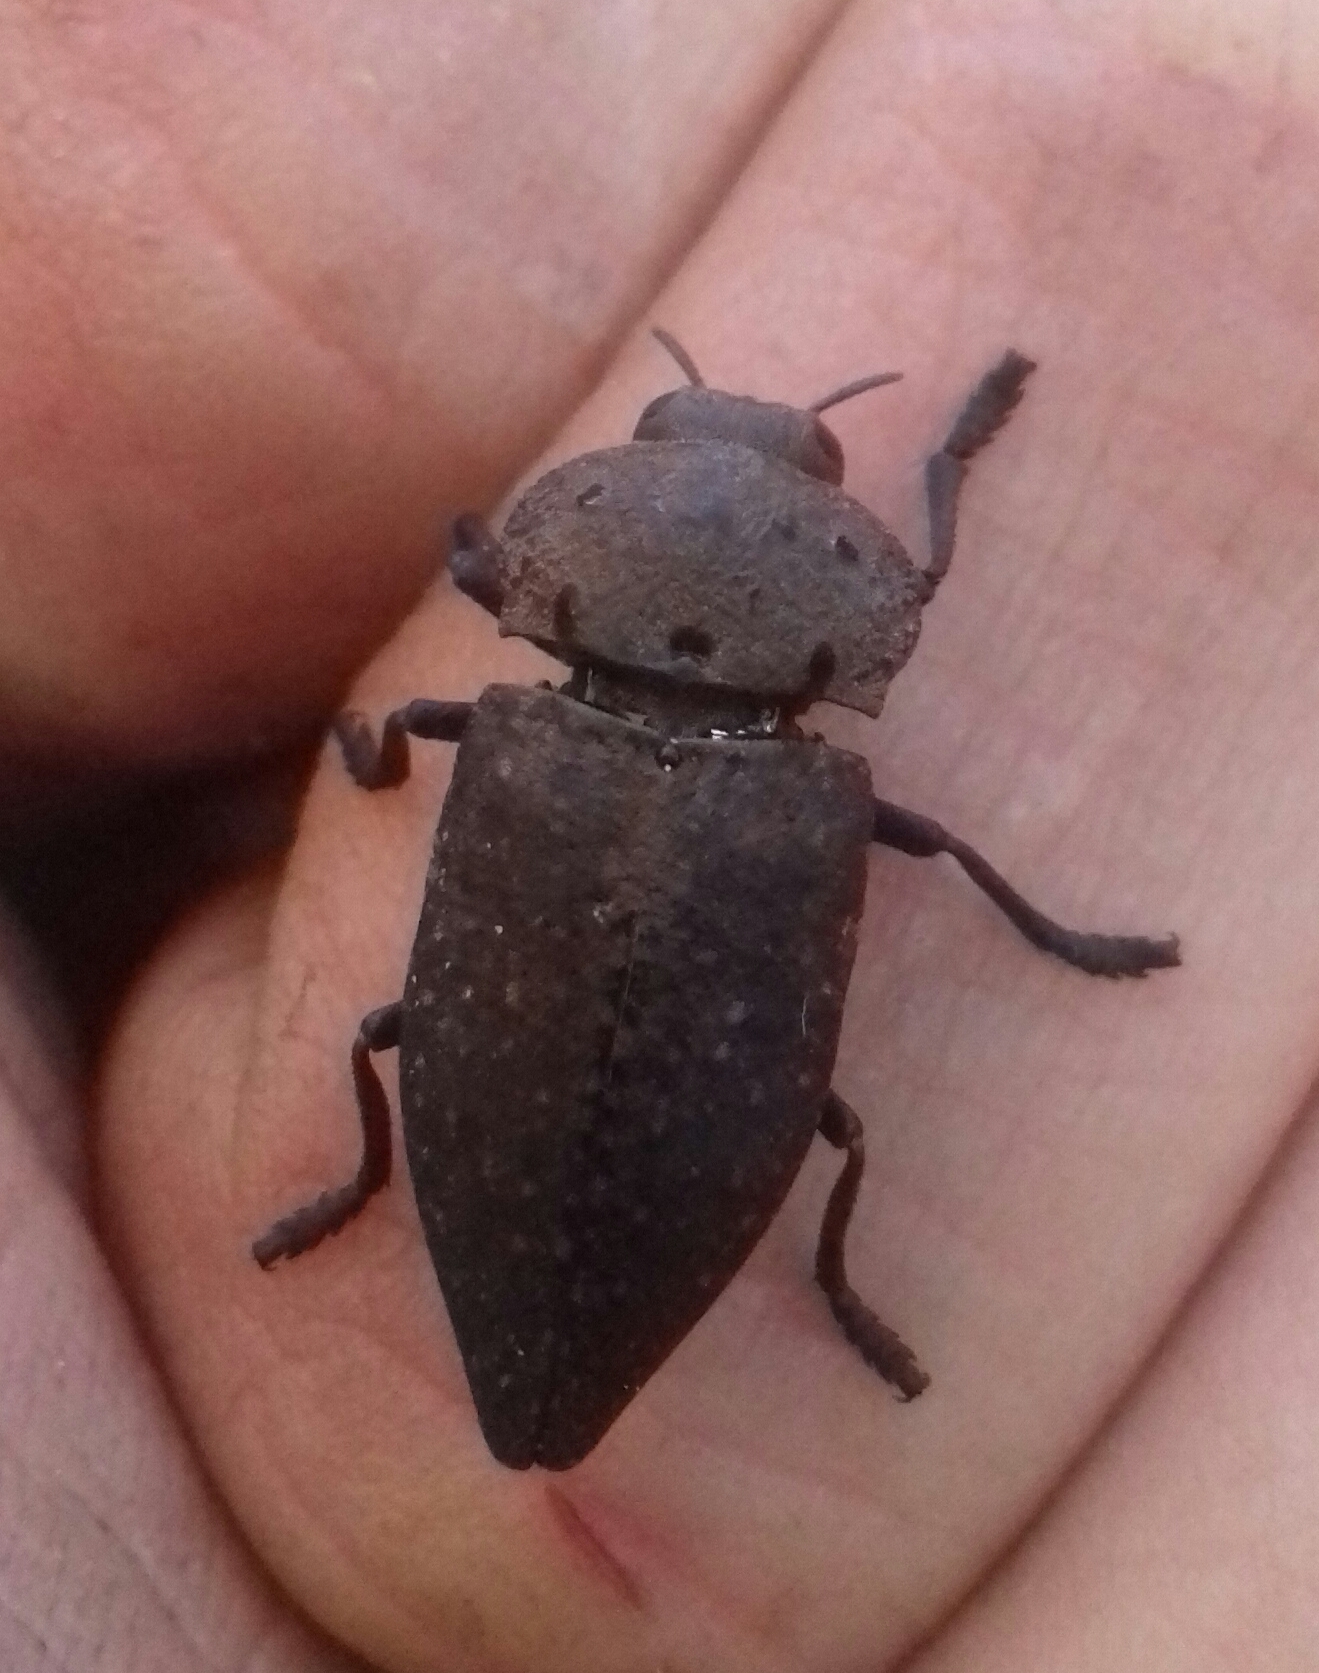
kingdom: Animalia
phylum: Arthropoda
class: Insecta
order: Coleoptera
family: Buprestidae
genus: Capnodis
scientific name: Capnodis tenebrionis
